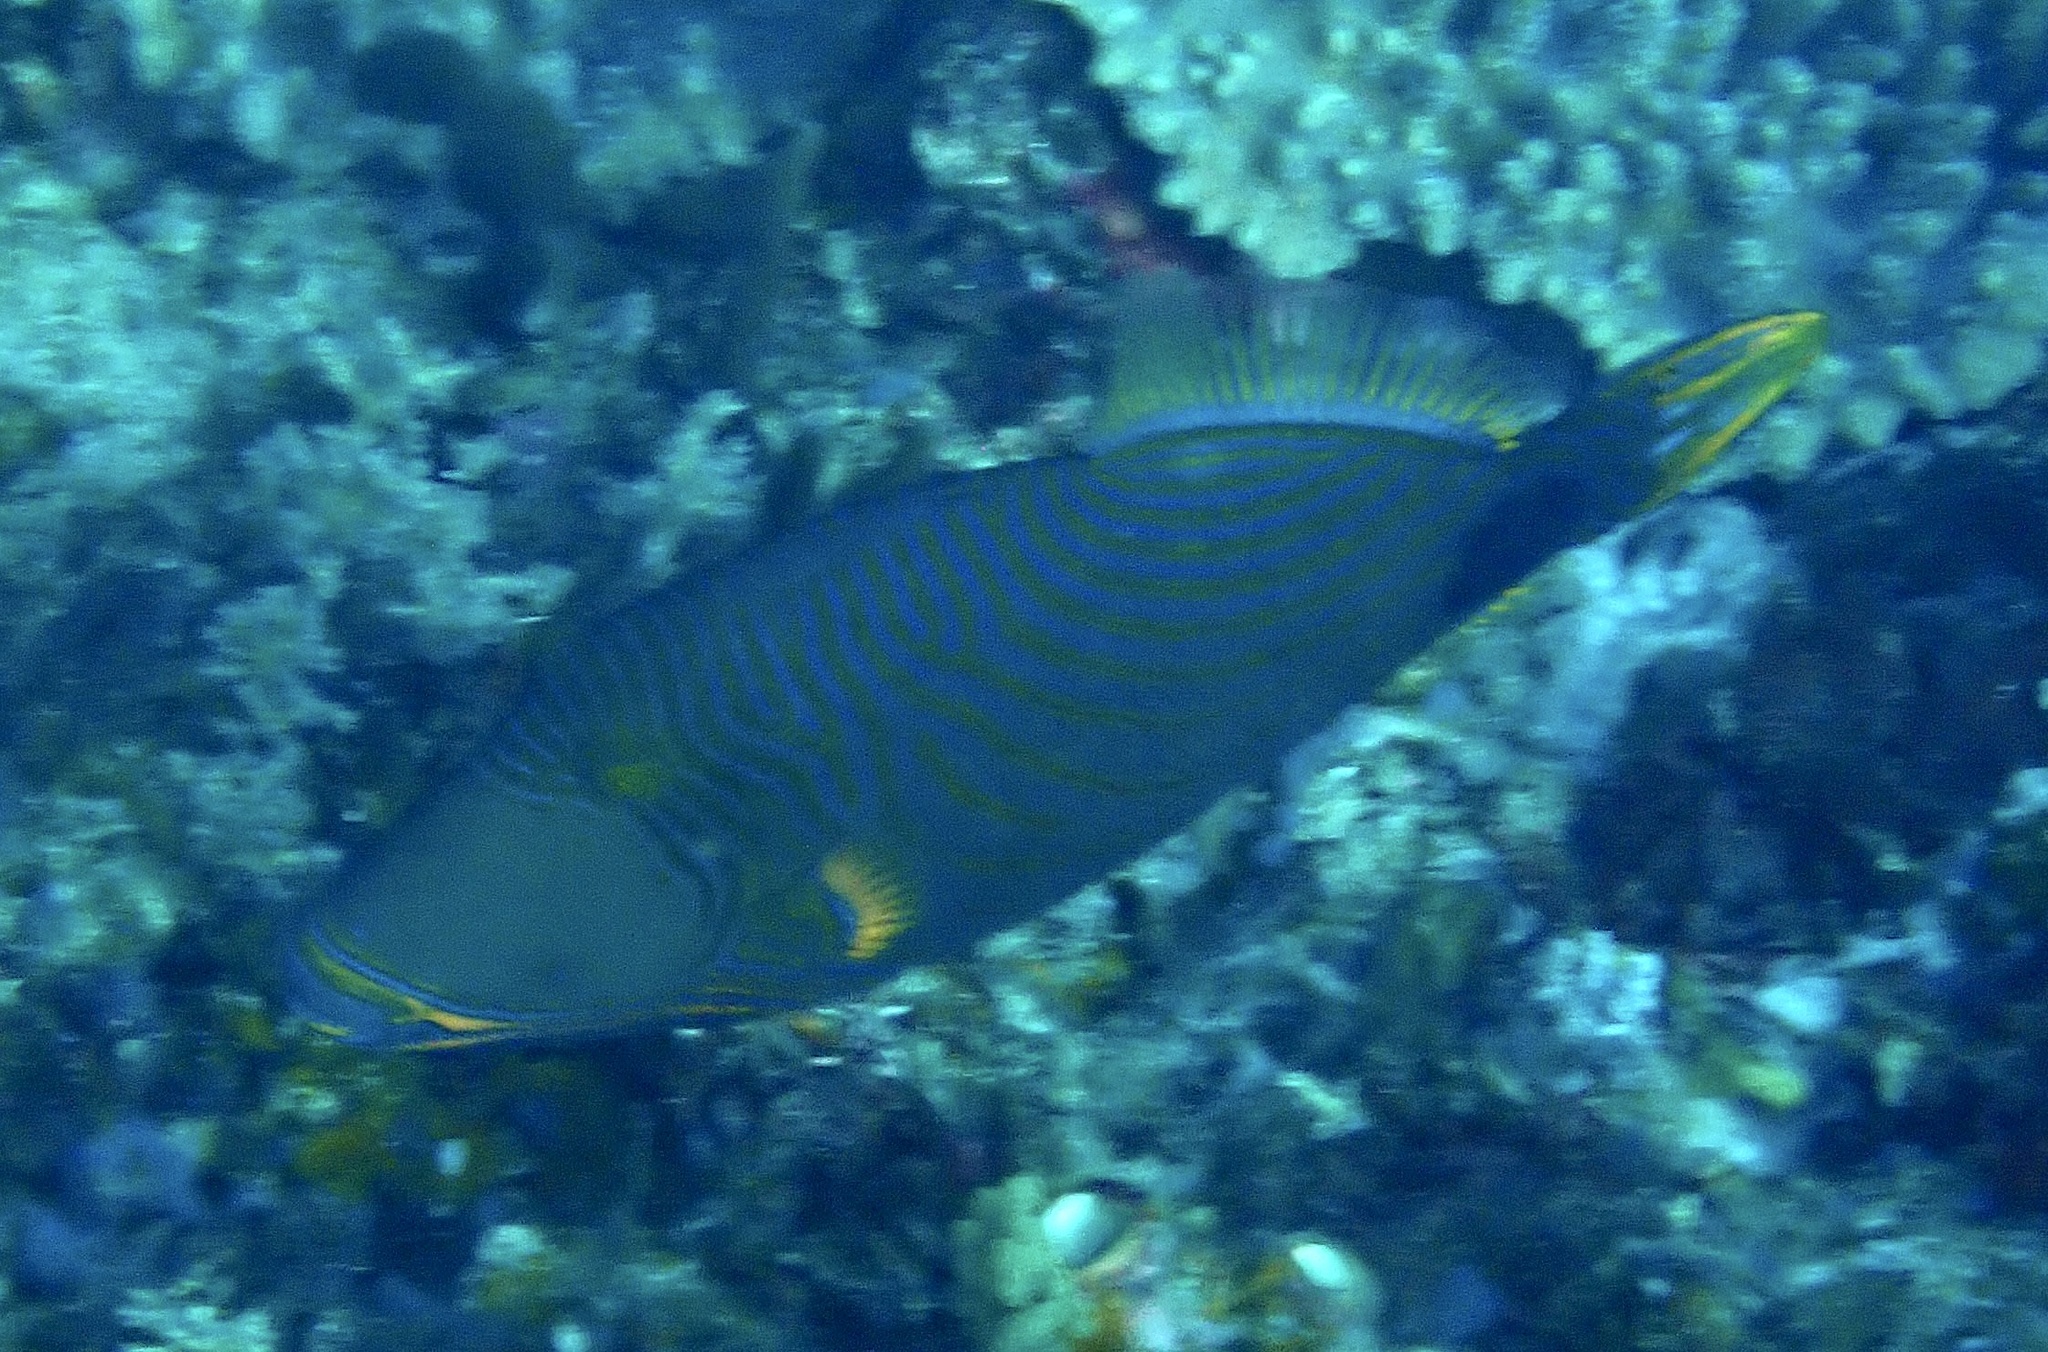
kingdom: Animalia
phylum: Chordata
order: Tetraodontiformes
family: Balistidae
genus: Balistapus
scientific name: Balistapus undulatus
